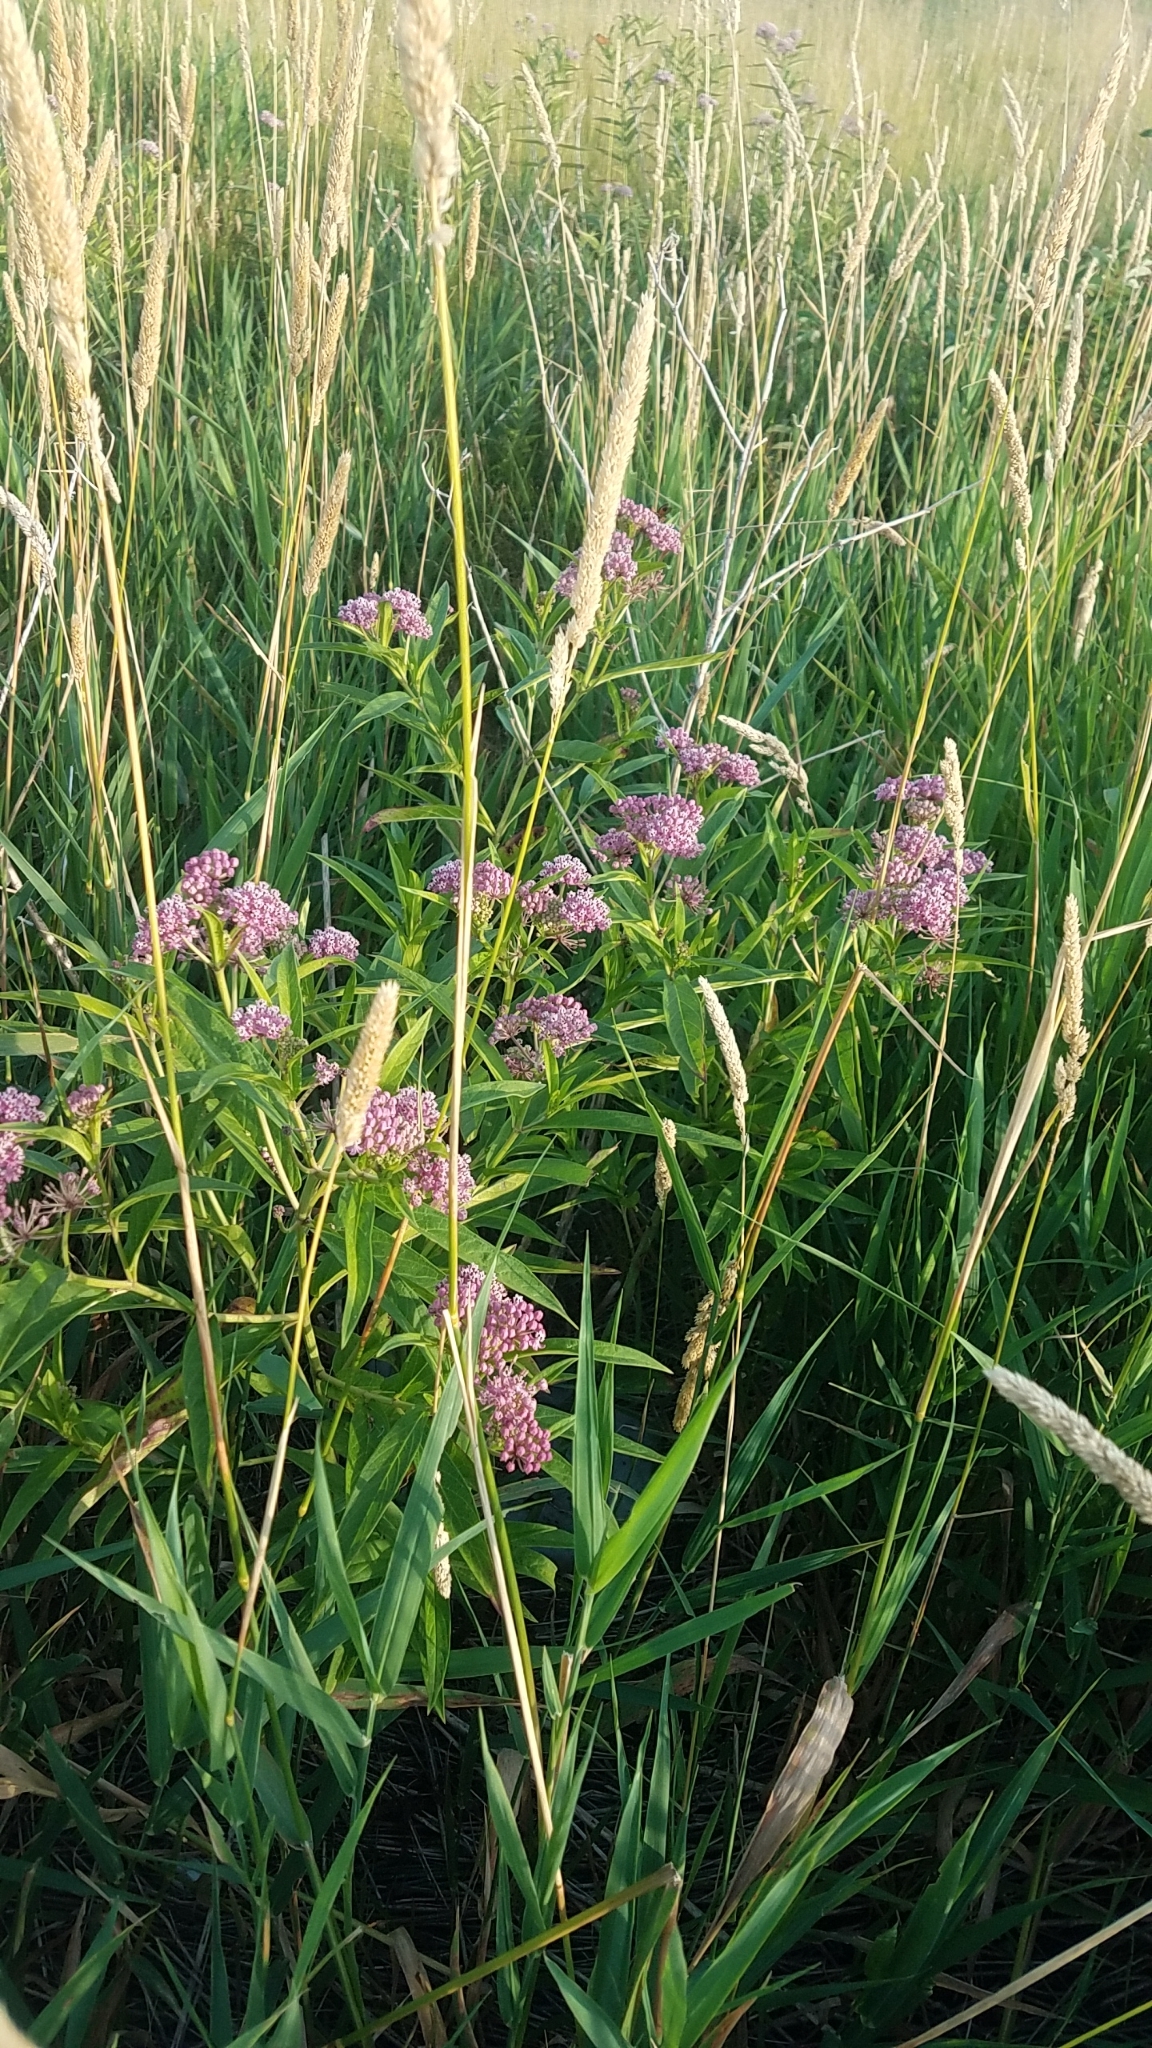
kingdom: Plantae
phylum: Tracheophyta
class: Magnoliopsida
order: Gentianales
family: Apocynaceae
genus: Asclepias
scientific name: Asclepias incarnata
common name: Swamp milkweed
